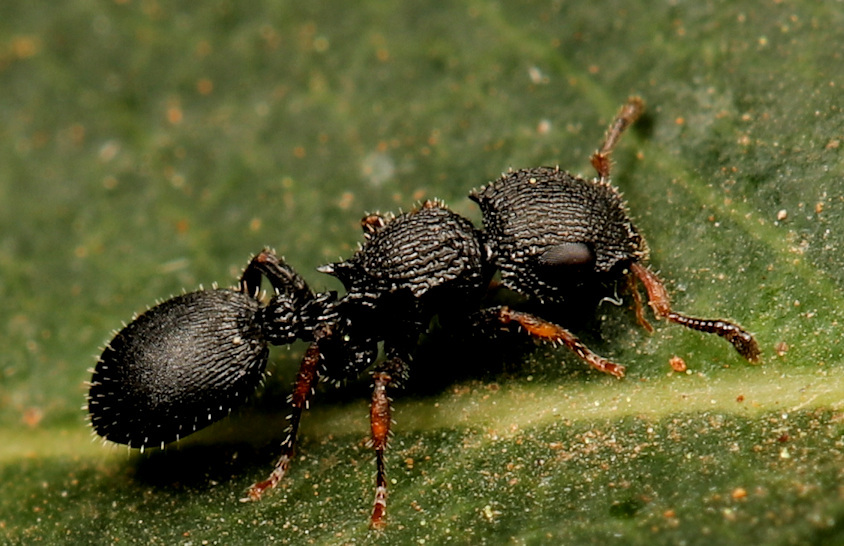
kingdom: Animalia
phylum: Arthropoda
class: Insecta
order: Hymenoptera
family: Formicidae
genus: Cataulacus
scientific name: Cataulacus wissmannii
